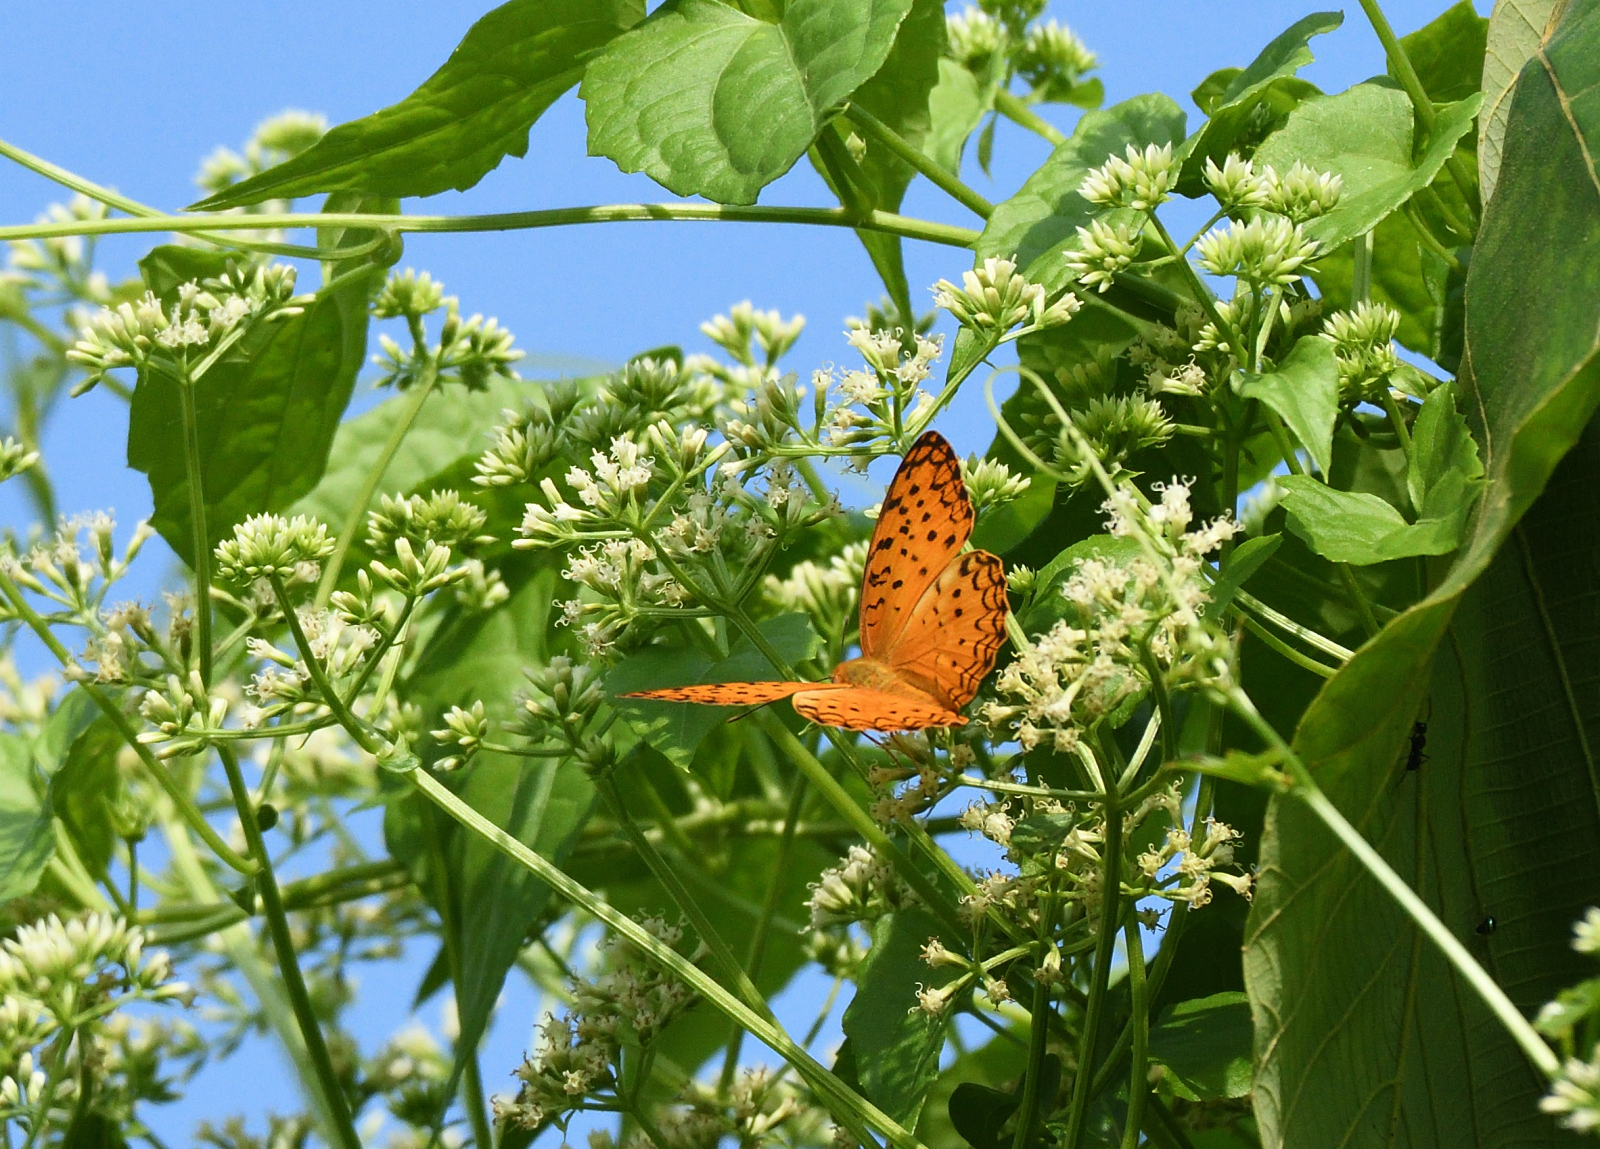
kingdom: Animalia
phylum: Arthropoda
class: Insecta
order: Lepidoptera
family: Nymphalidae
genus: Phalanta
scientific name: Phalanta phalantha
